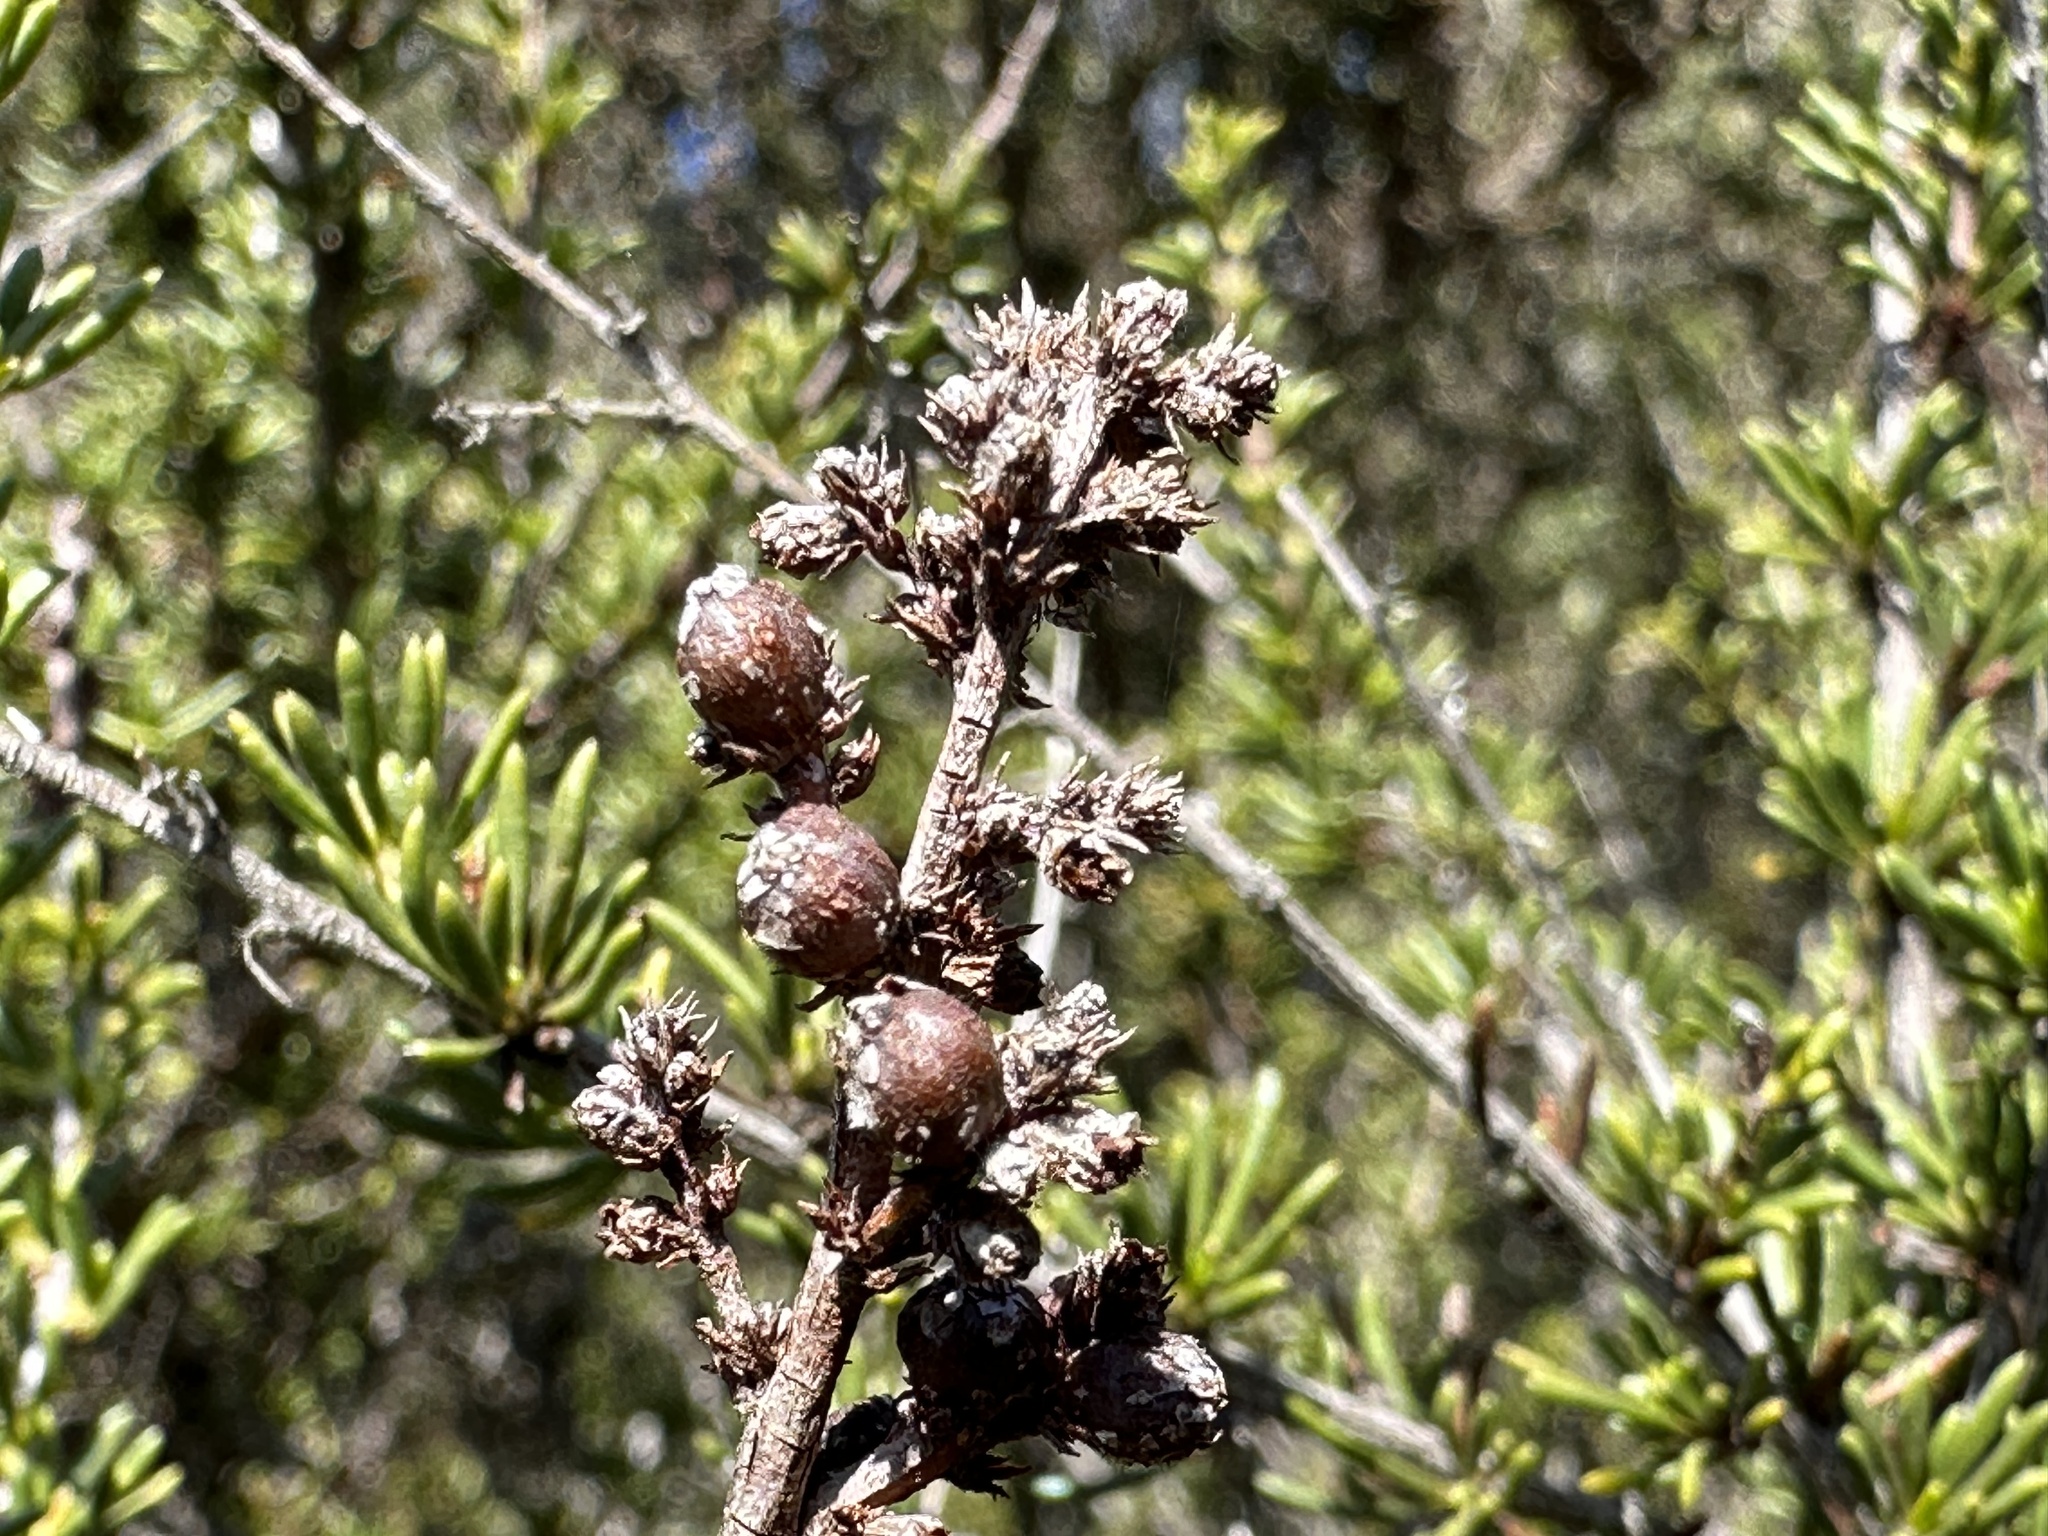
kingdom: Animalia
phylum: Arthropoda
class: Insecta
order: Diptera
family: Cecidomyiidae
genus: Asphondylia
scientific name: Asphondylia adenostoma
